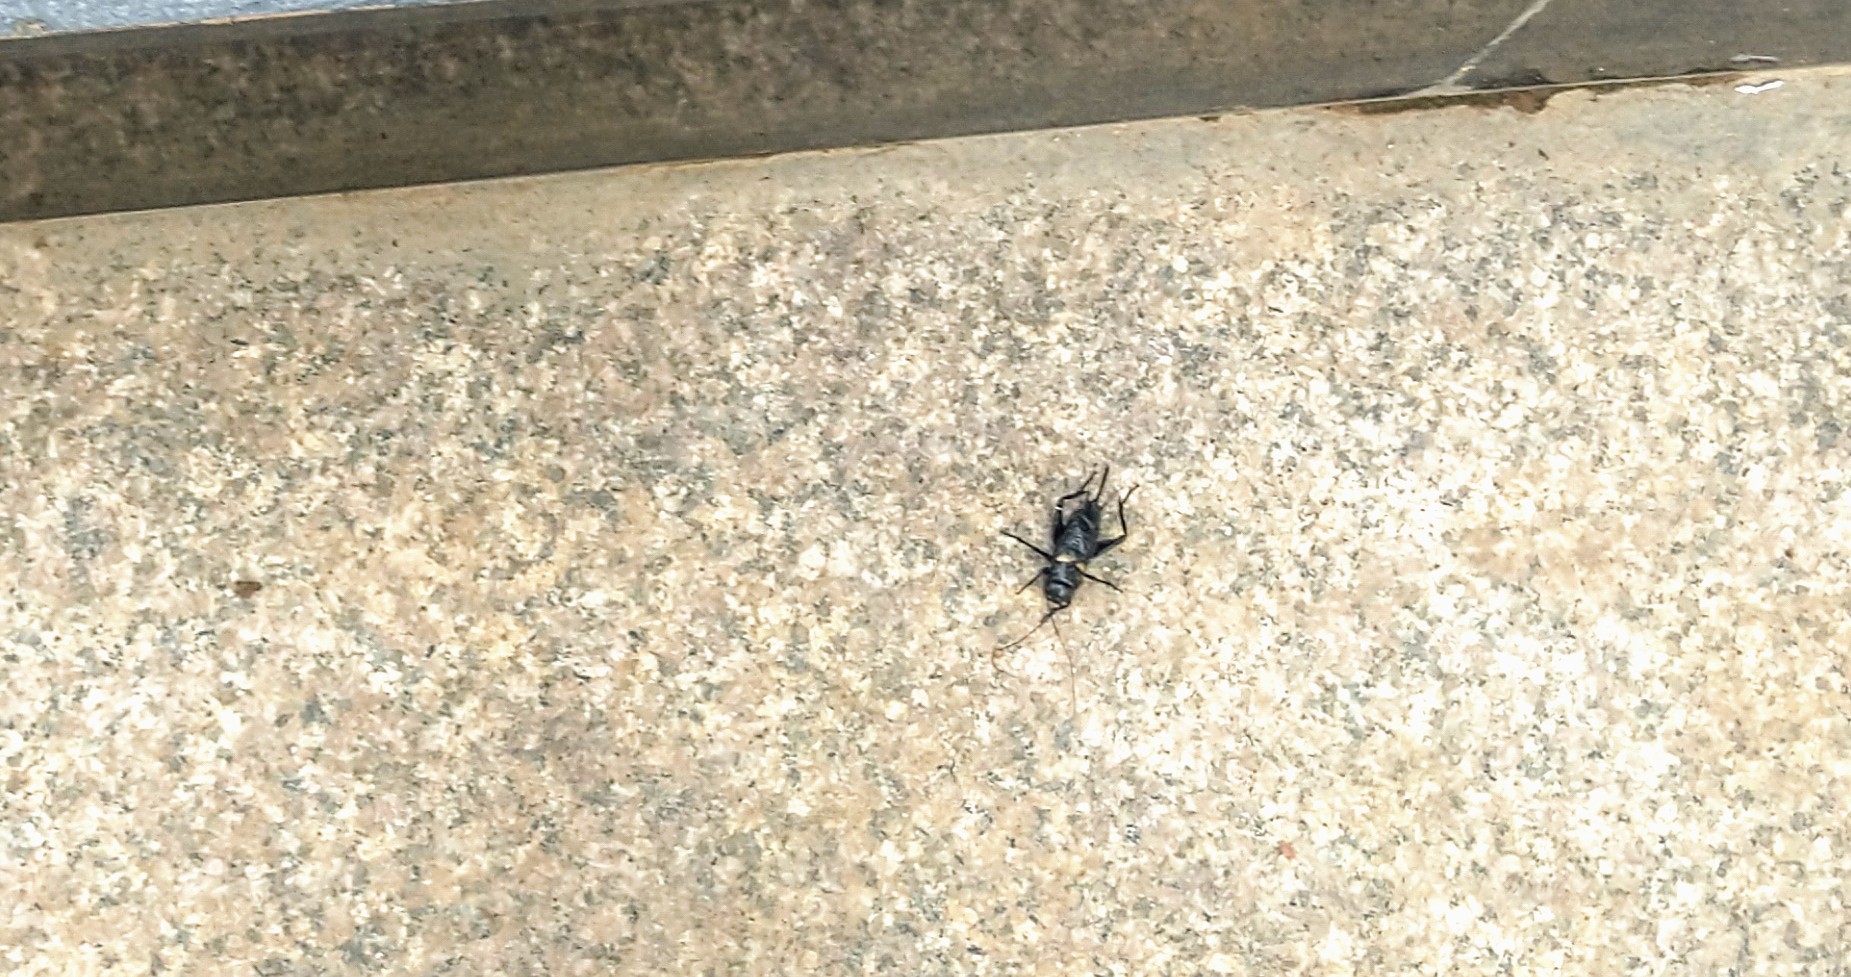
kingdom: Animalia
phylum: Arthropoda
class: Insecta
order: Orthoptera
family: Gryllidae
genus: Gryllus
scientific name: Gryllus bimaculatus
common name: Two-spotted cricket
